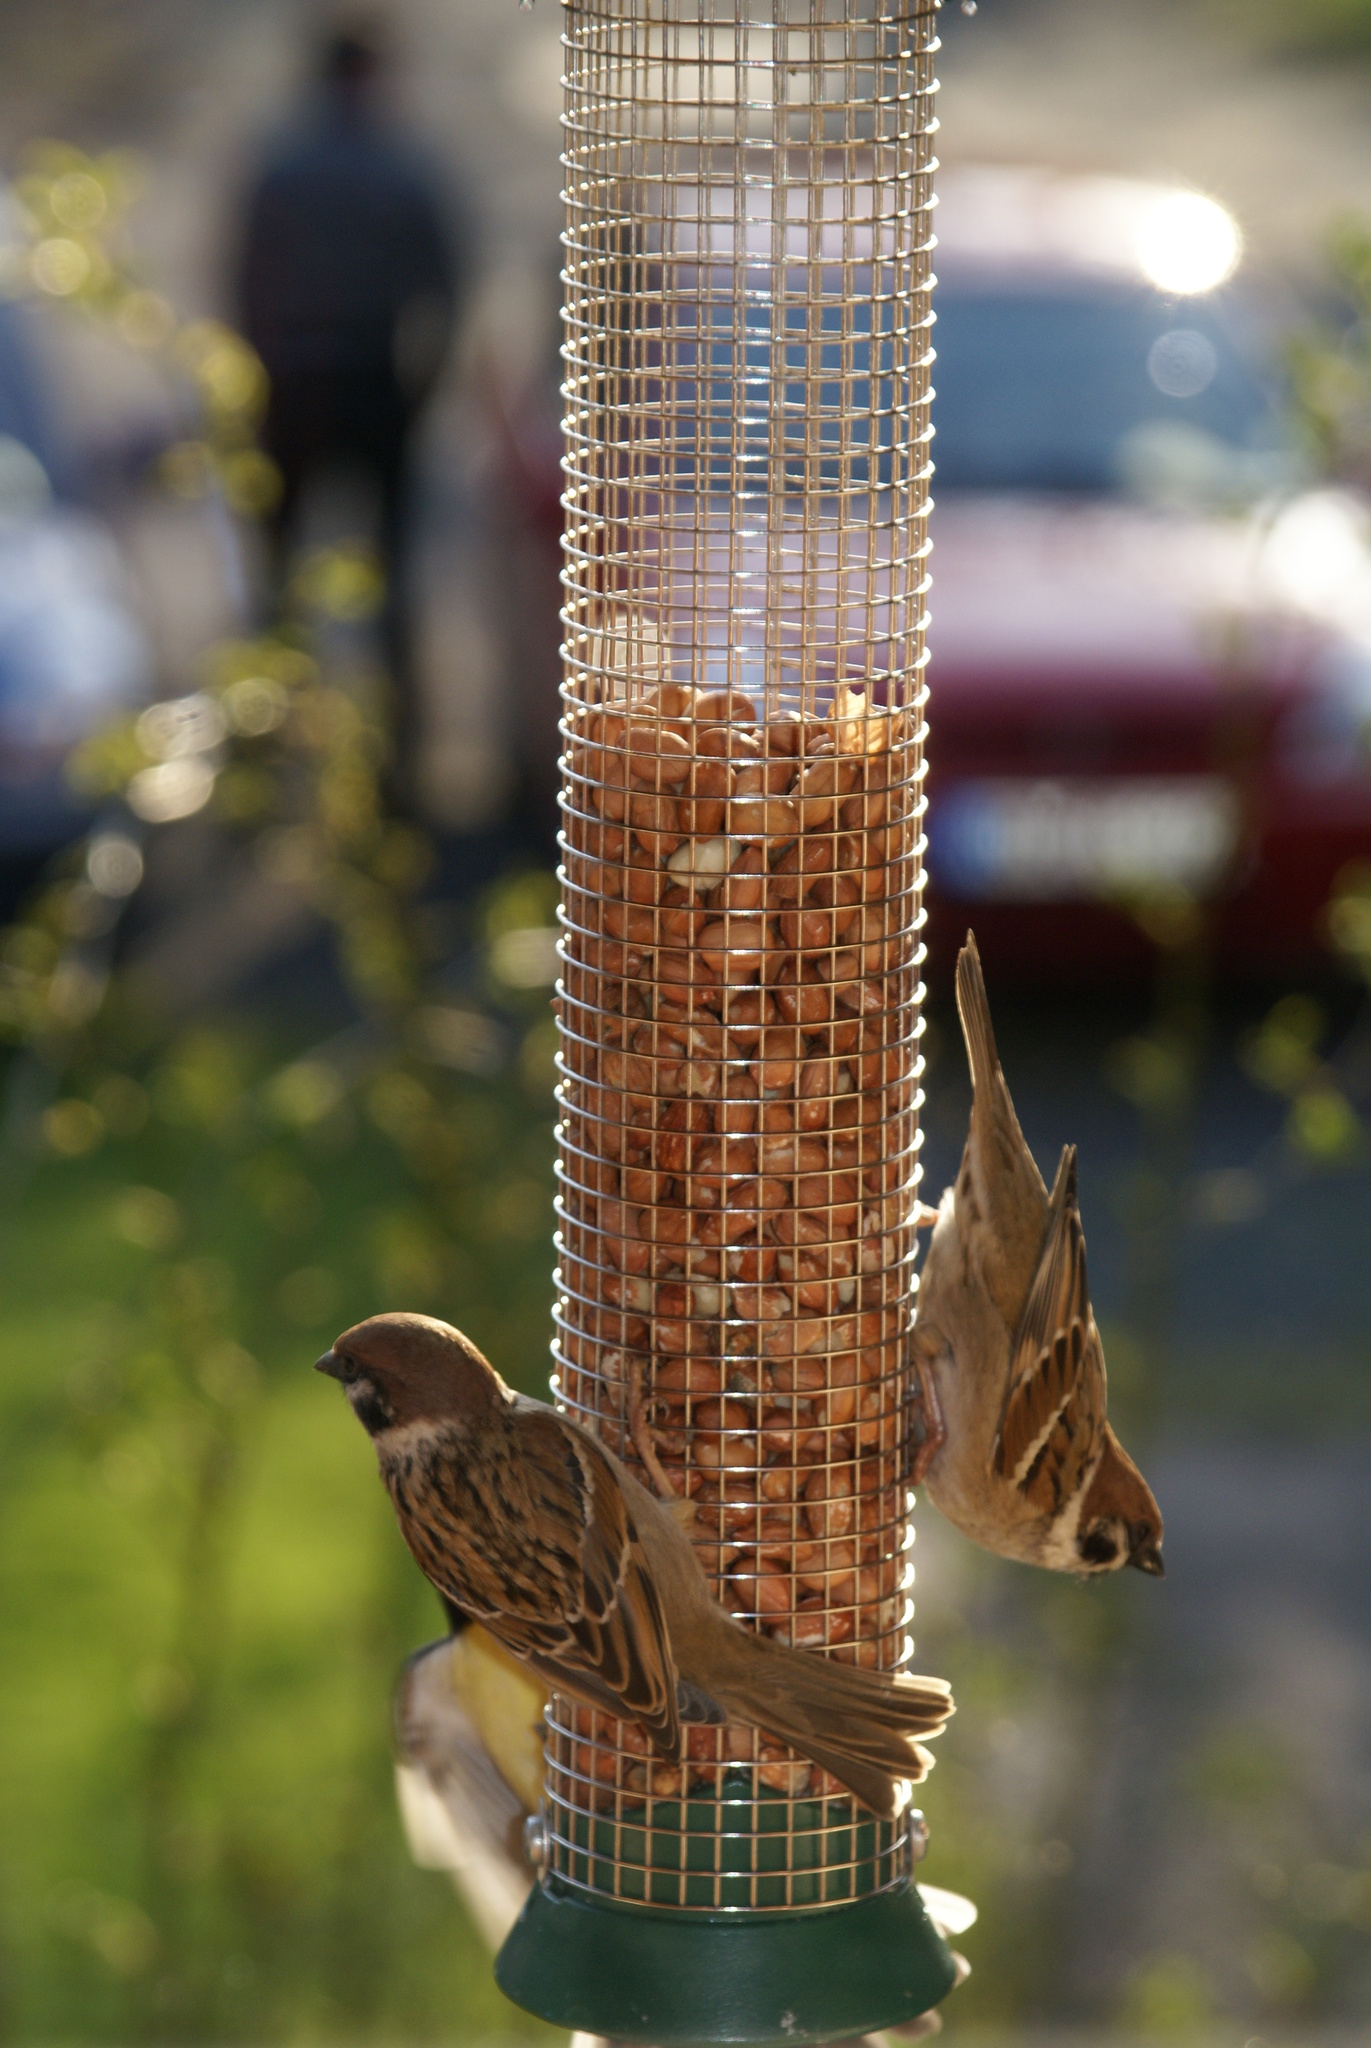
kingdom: Animalia
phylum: Chordata
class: Aves
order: Passeriformes
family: Passeridae
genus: Passer
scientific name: Passer montanus
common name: Eurasian tree sparrow
